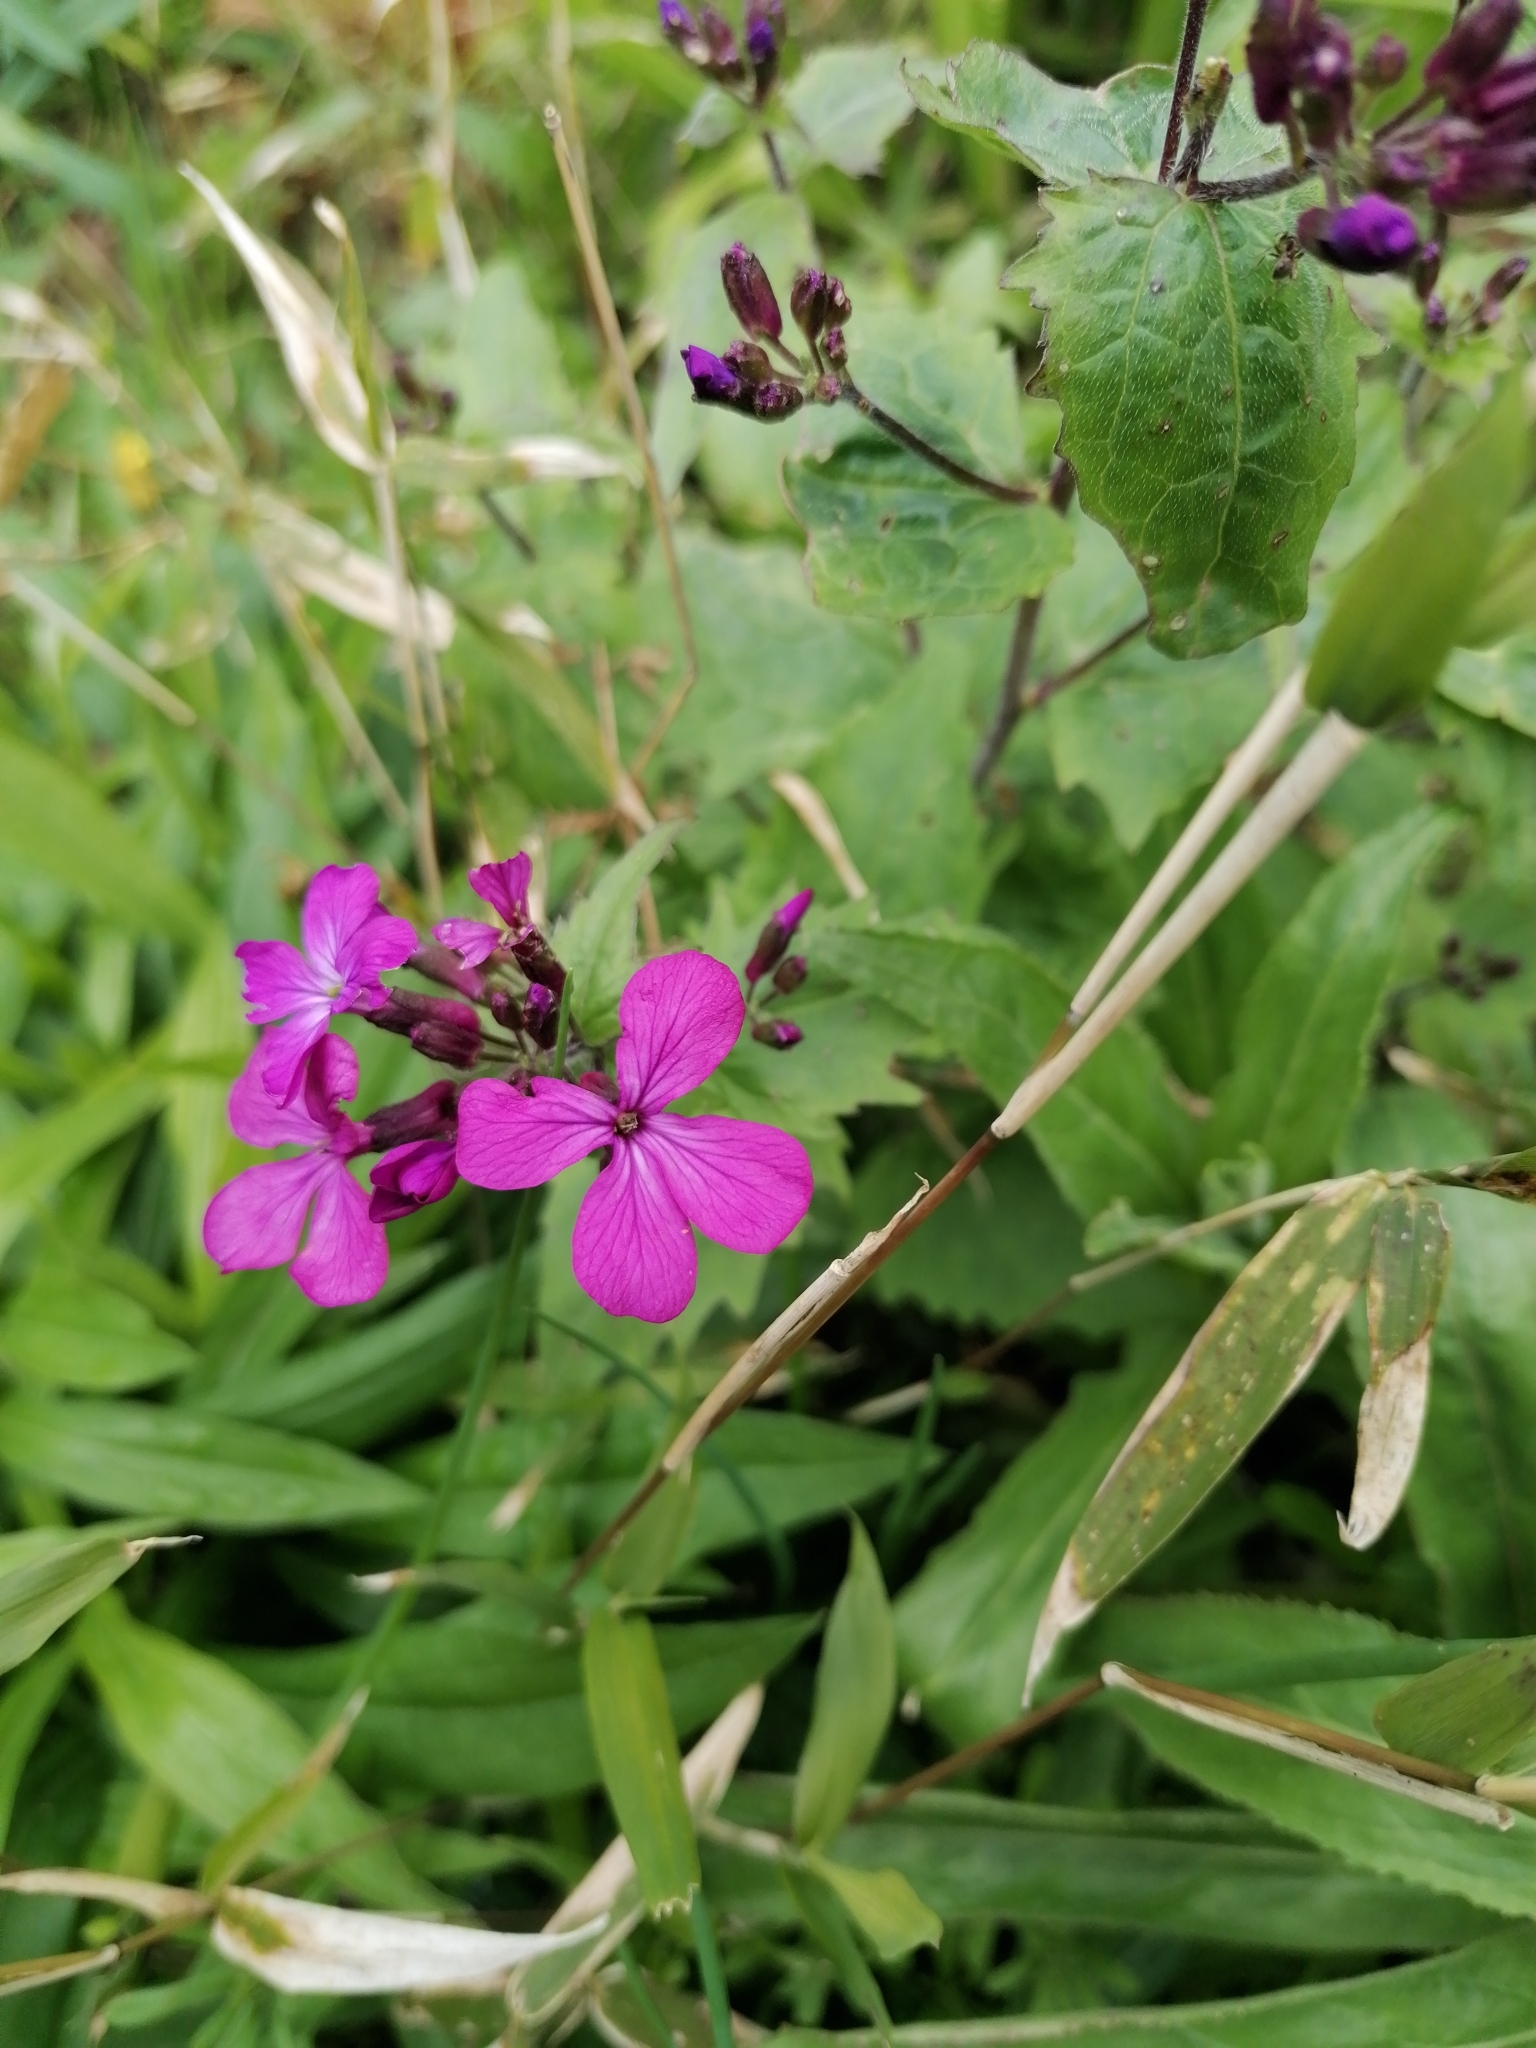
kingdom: Plantae
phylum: Tracheophyta
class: Magnoliopsida
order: Brassicales
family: Brassicaceae
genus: Lunaria
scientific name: Lunaria annua
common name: Honesty
